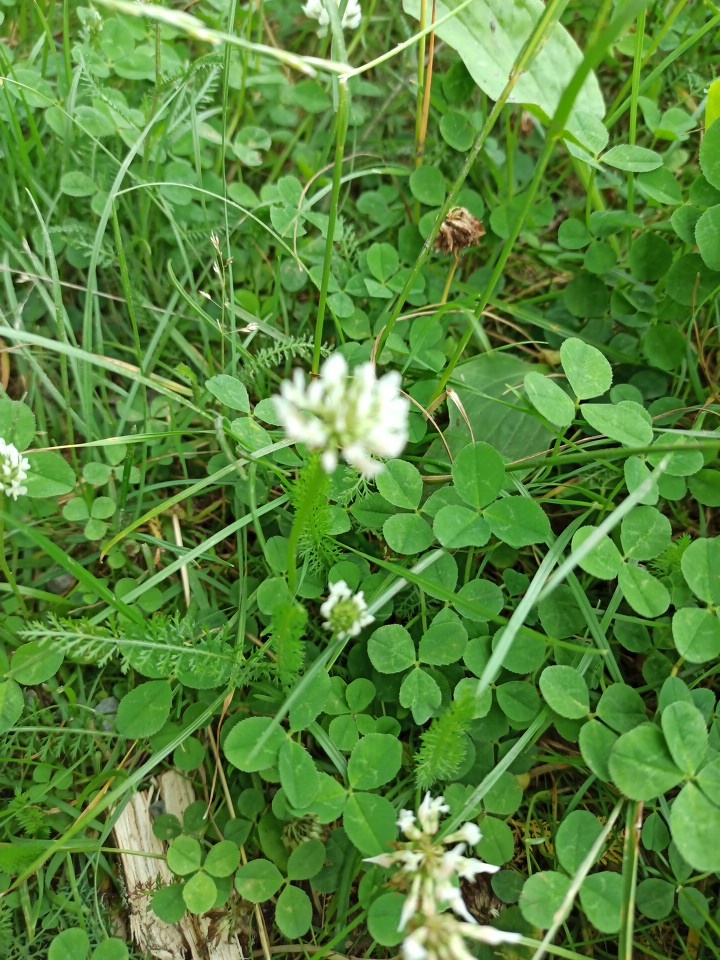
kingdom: Plantae
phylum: Tracheophyta
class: Magnoliopsida
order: Fabales
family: Fabaceae
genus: Trifolium
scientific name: Trifolium repens
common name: White clover
